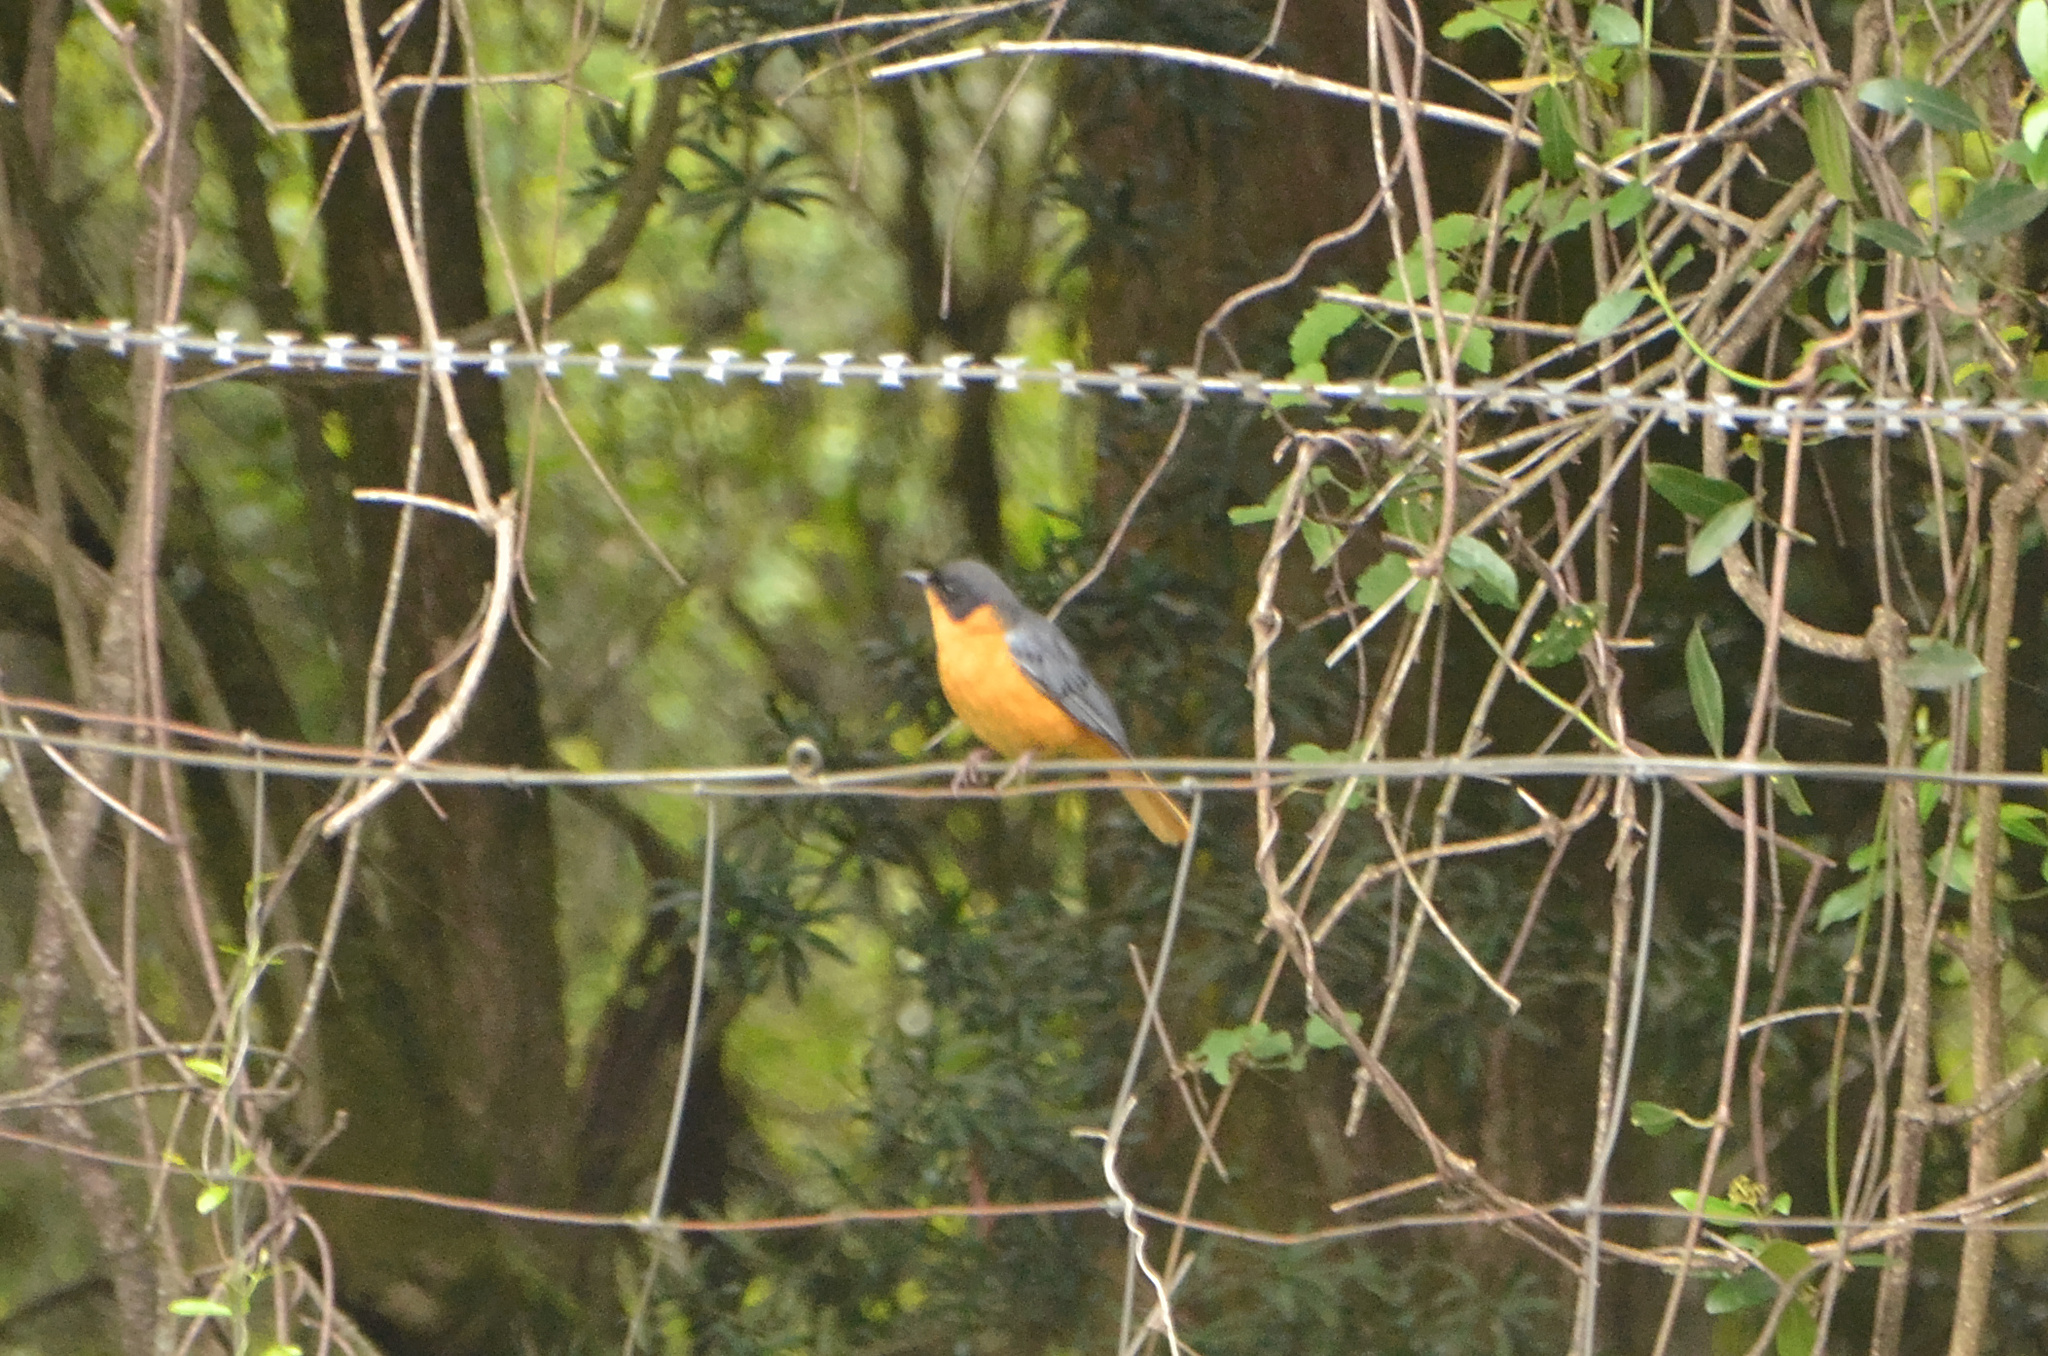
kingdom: Animalia
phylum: Chordata
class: Aves
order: Passeriformes
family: Muscicapidae
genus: Cossypha
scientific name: Cossypha dichroa
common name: Chorister robin-chat
